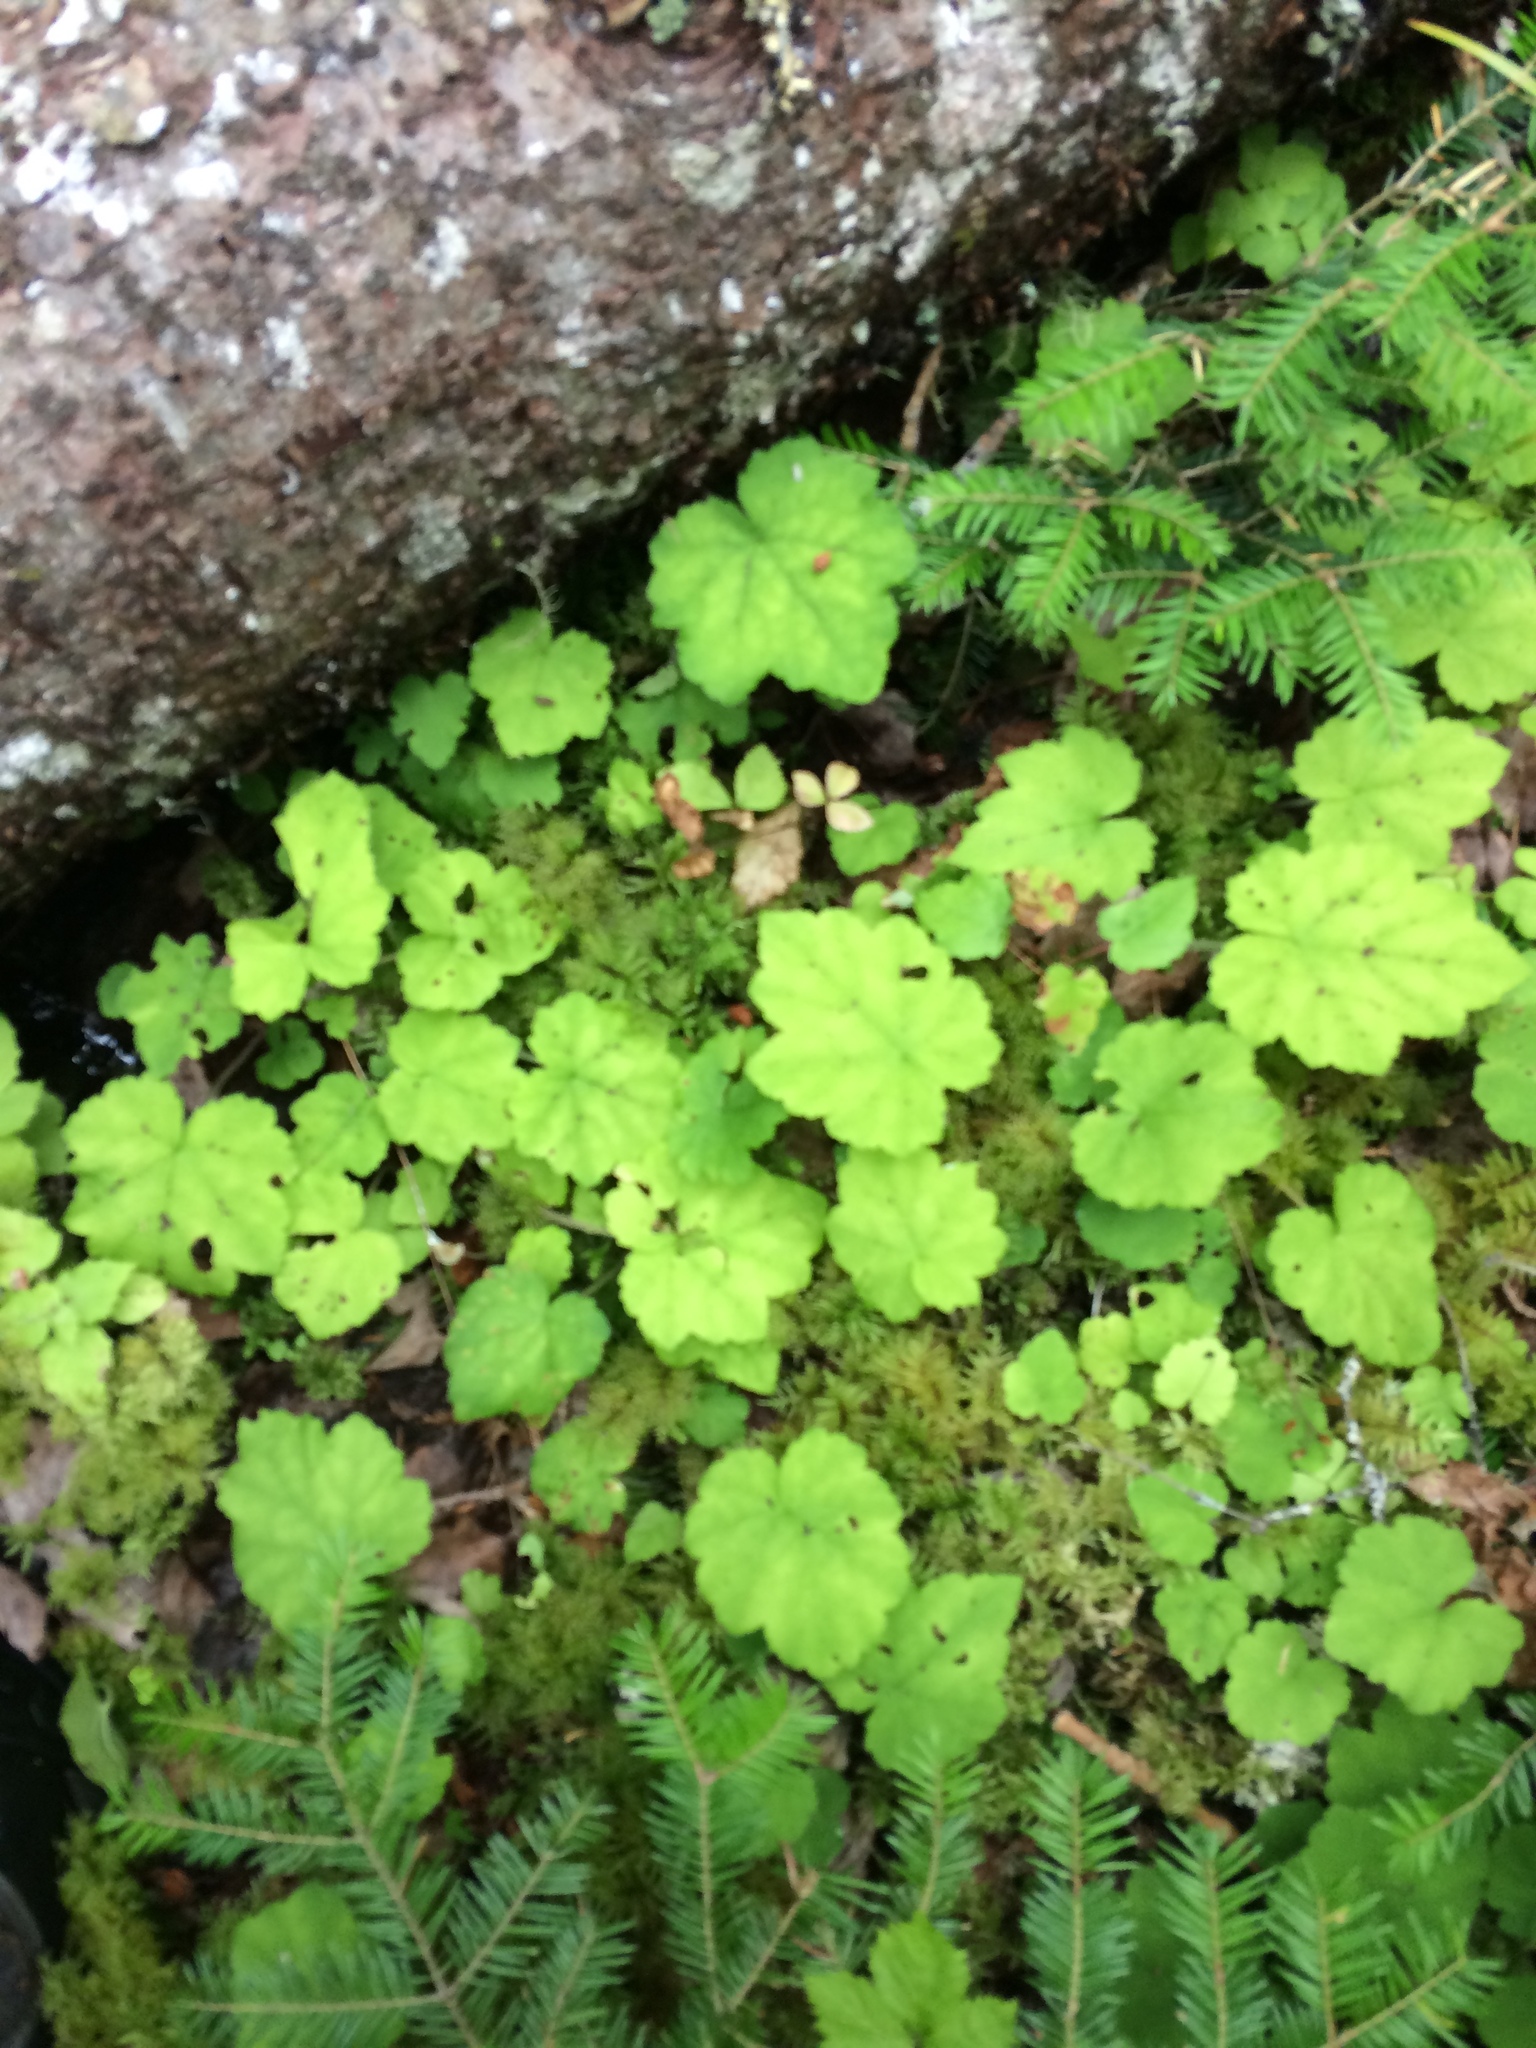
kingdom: Plantae
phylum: Tracheophyta
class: Magnoliopsida
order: Saxifragales
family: Saxifragaceae
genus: Tiarella
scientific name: Tiarella stolonifera
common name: Stoloniferous foamflower
